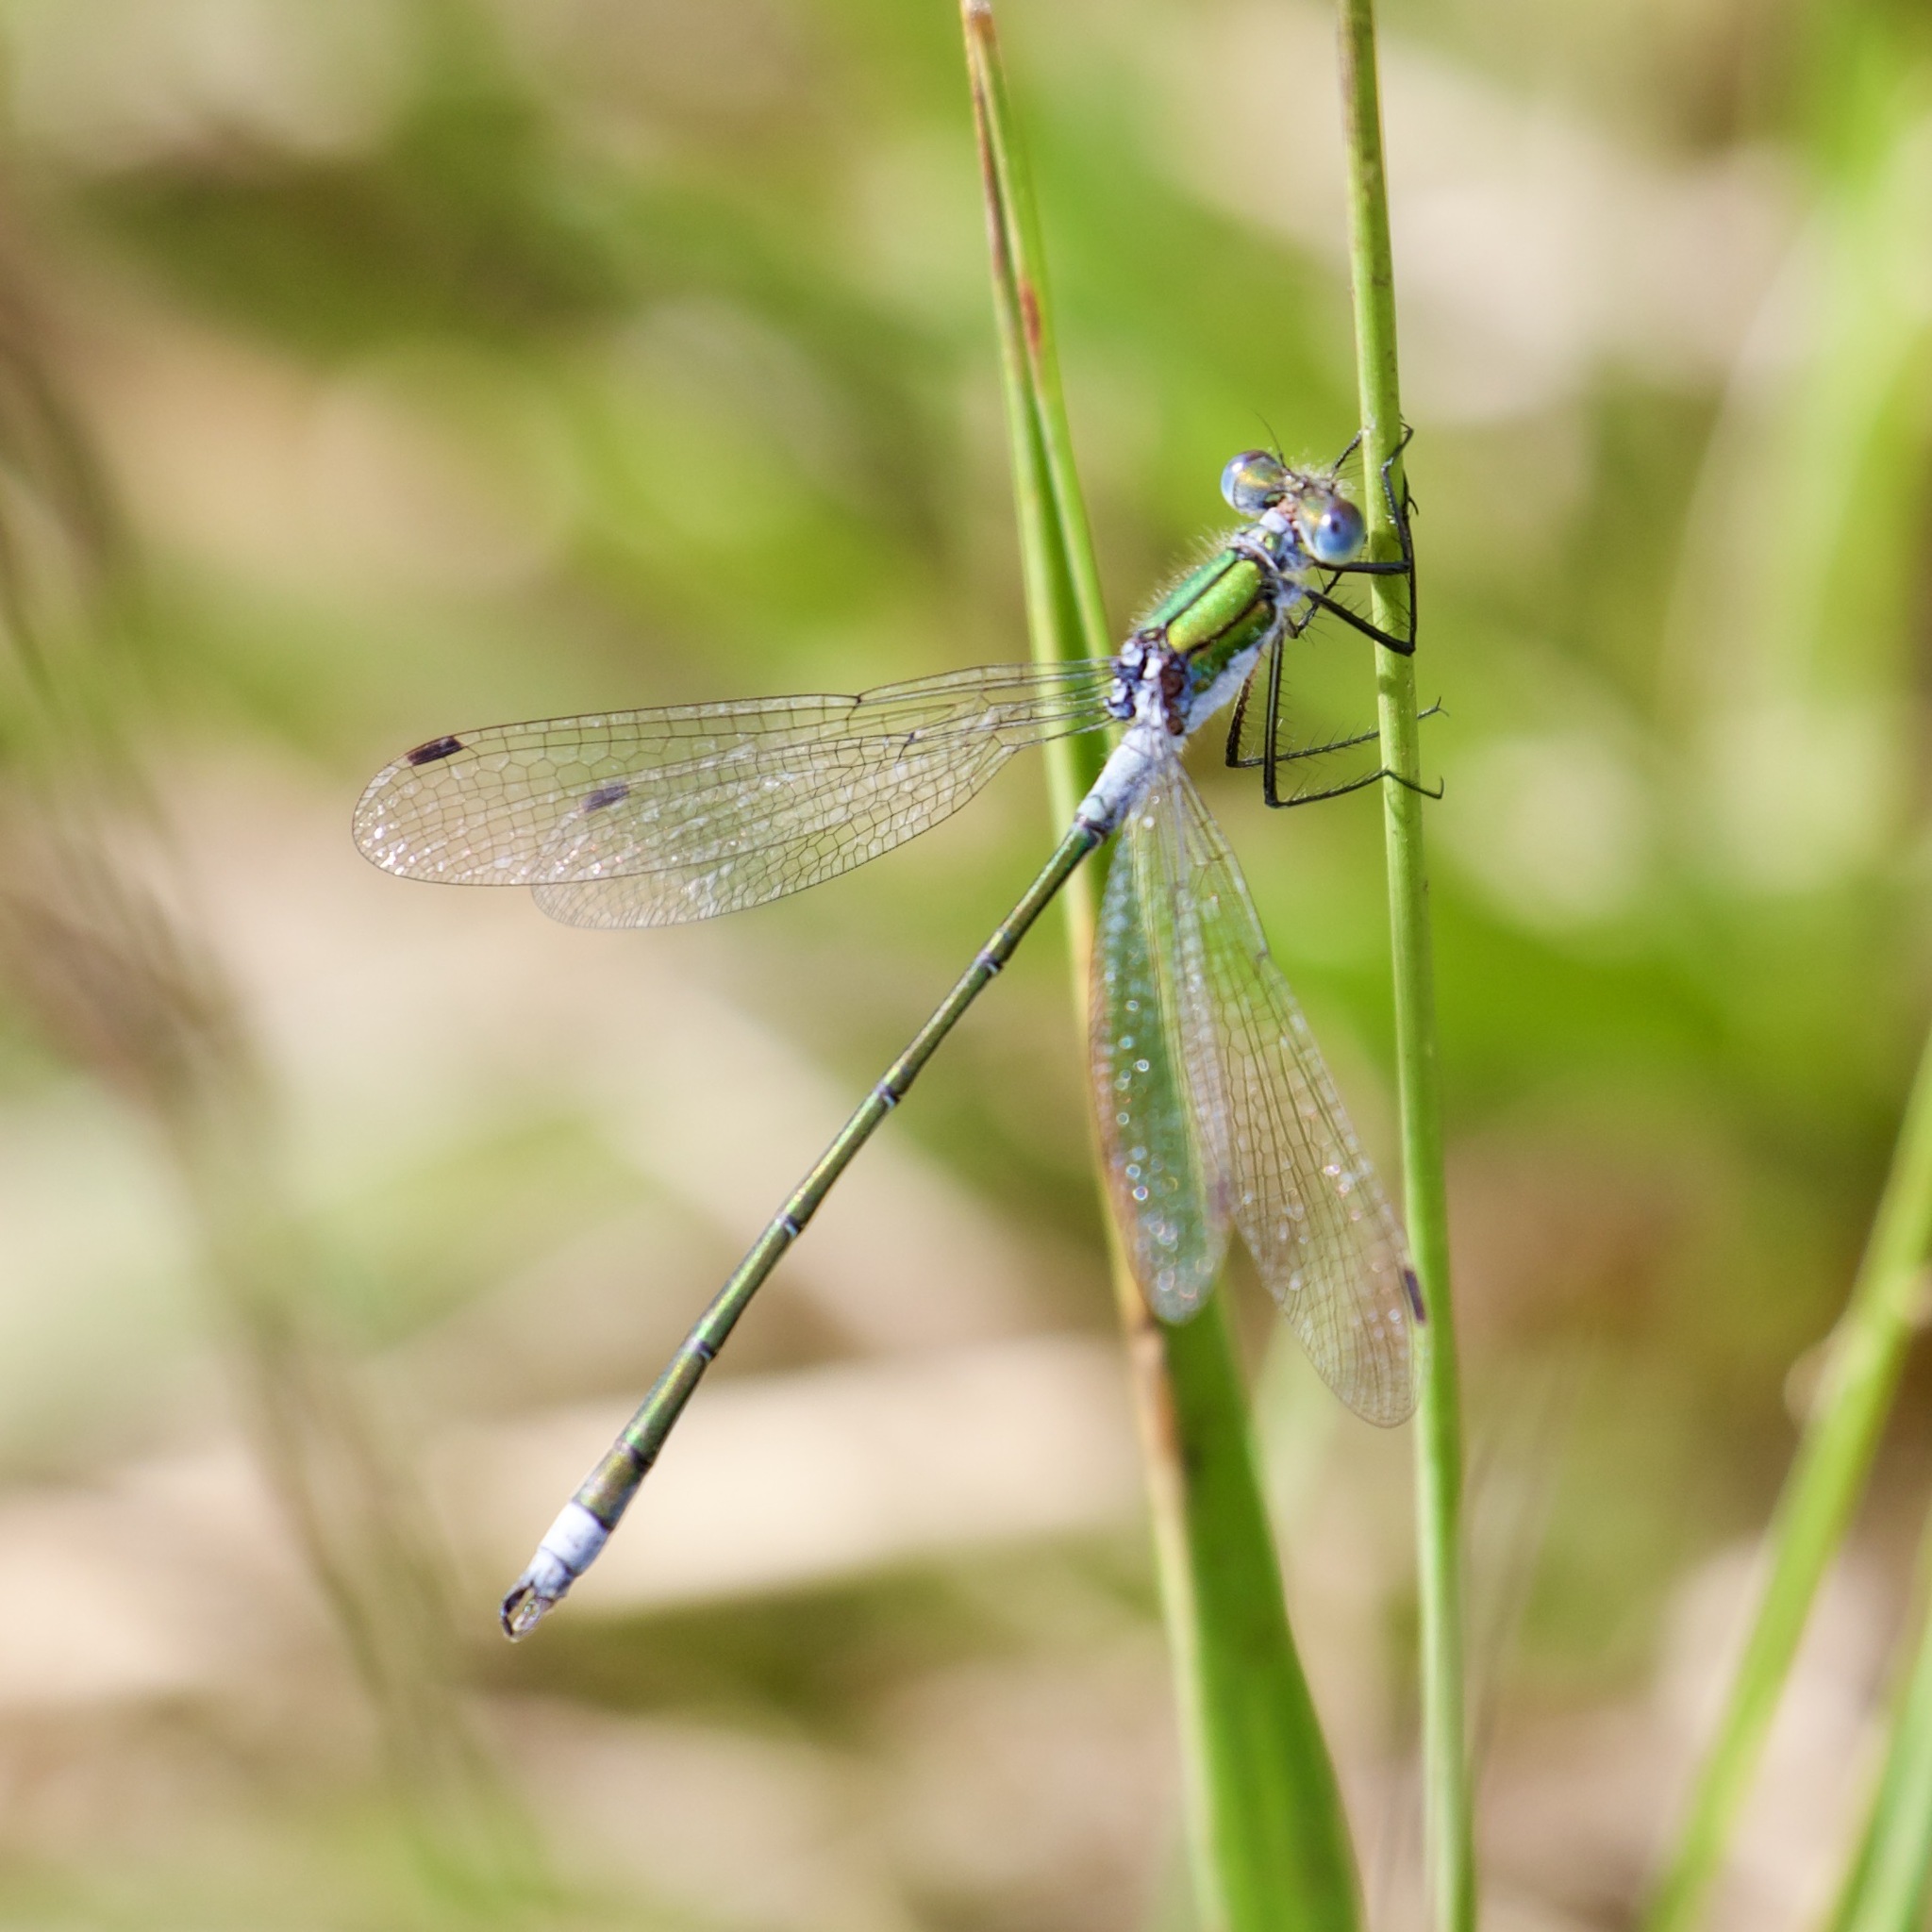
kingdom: Animalia
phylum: Arthropoda
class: Insecta
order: Odonata
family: Lestidae
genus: Lestes
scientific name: Lestes sponsa
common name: Common spreadwing
